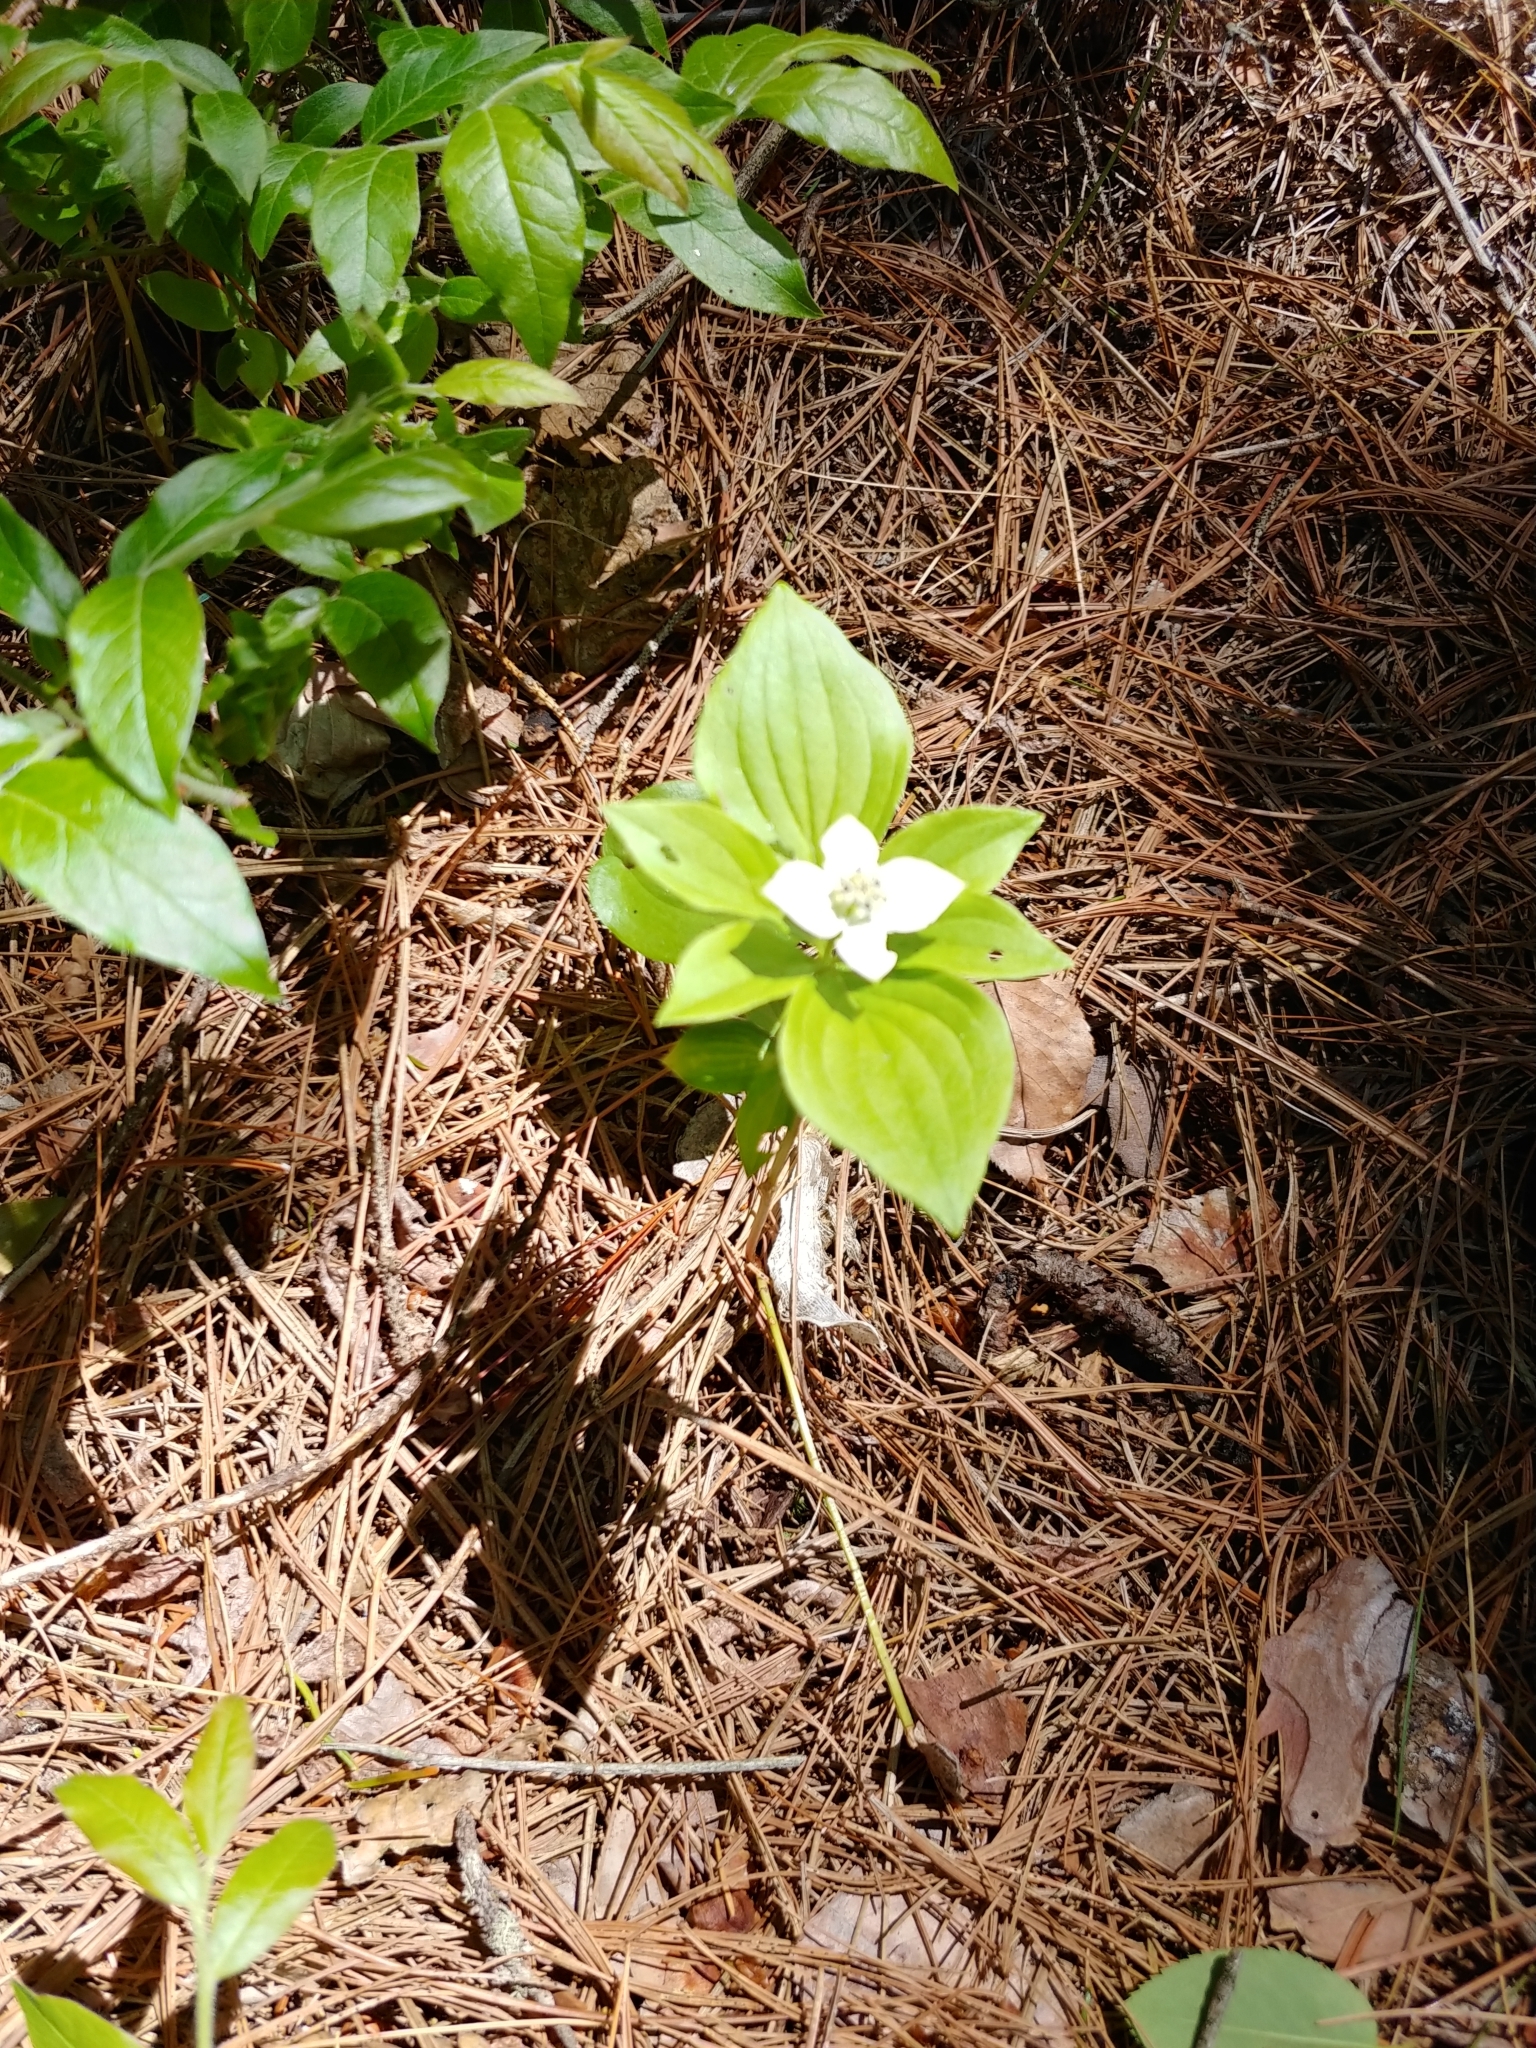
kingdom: Plantae
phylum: Tracheophyta
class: Magnoliopsida
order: Cornales
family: Cornaceae
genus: Cornus
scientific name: Cornus canadensis
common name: Creeping dogwood
